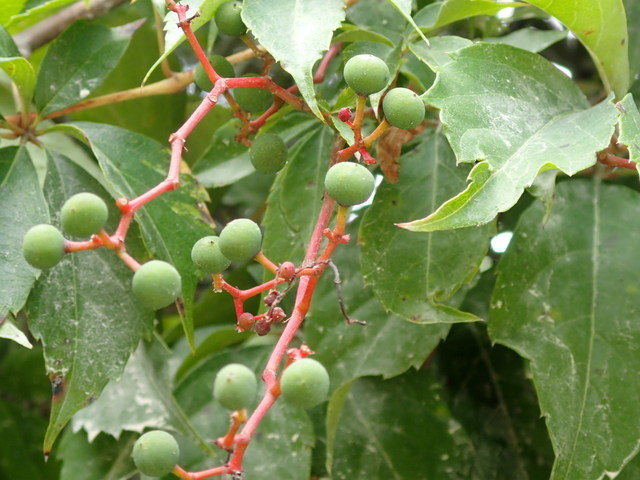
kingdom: Plantae
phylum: Tracheophyta
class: Magnoliopsida
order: Vitales
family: Vitaceae
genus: Parthenocissus
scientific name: Parthenocissus quinquefolia
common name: Virginia-creeper
